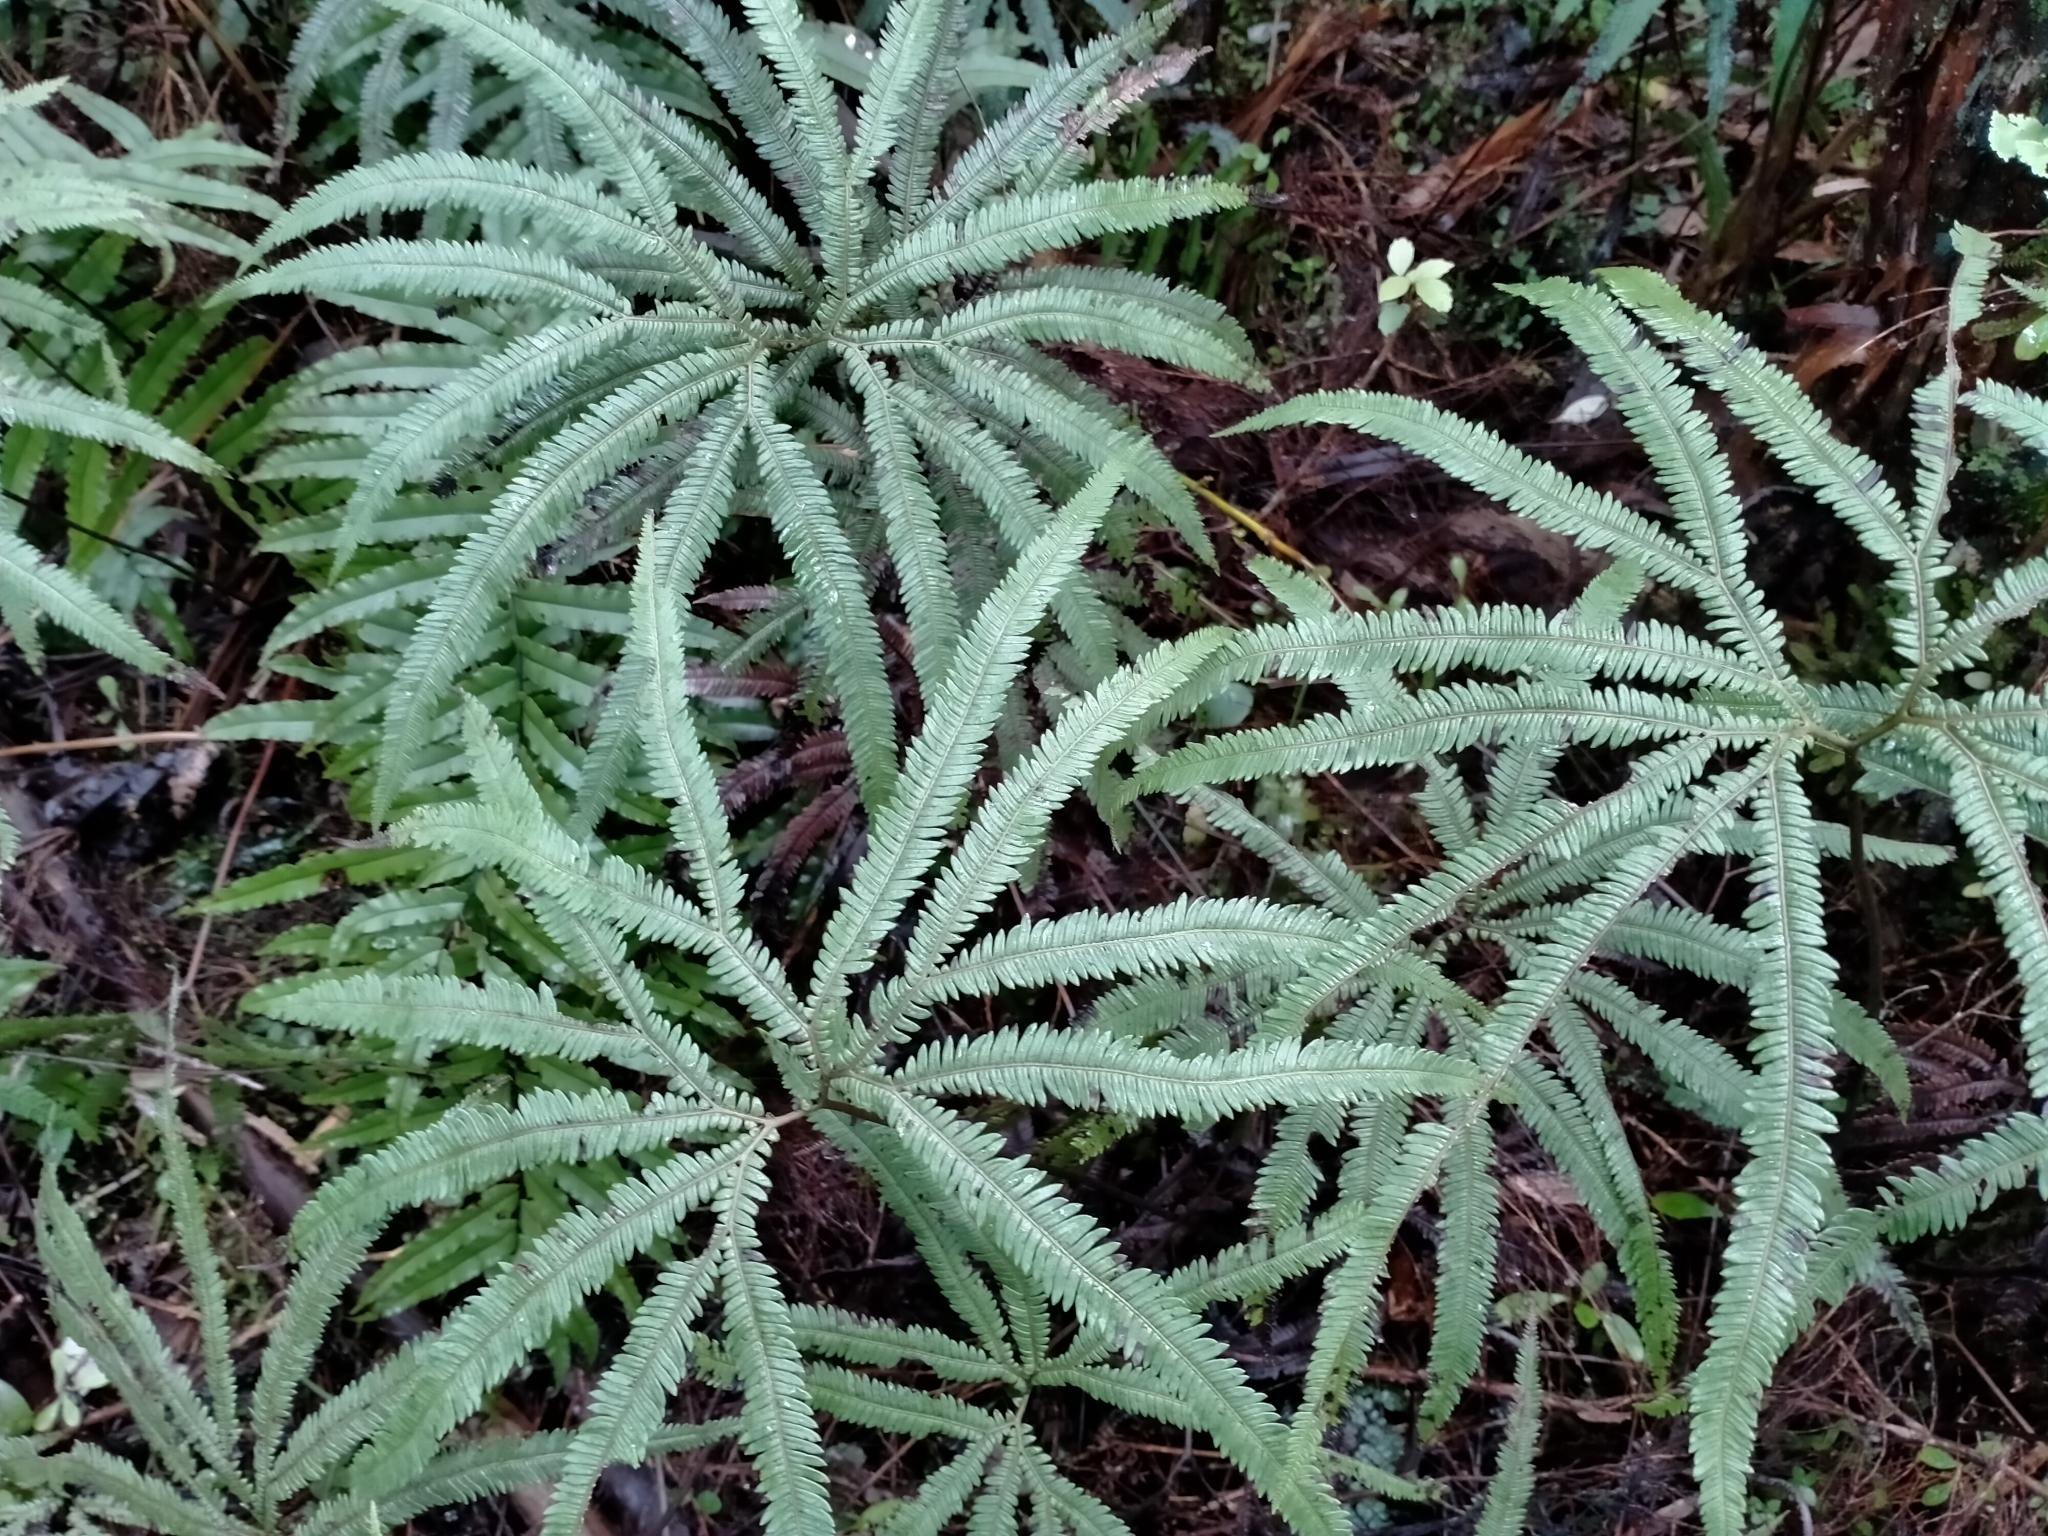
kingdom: Plantae
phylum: Tracheophyta
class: Polypodiopsida
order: Gleicheniales
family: Gleicheniaceae
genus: Sticherus
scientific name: Sticherus cunninghamii
